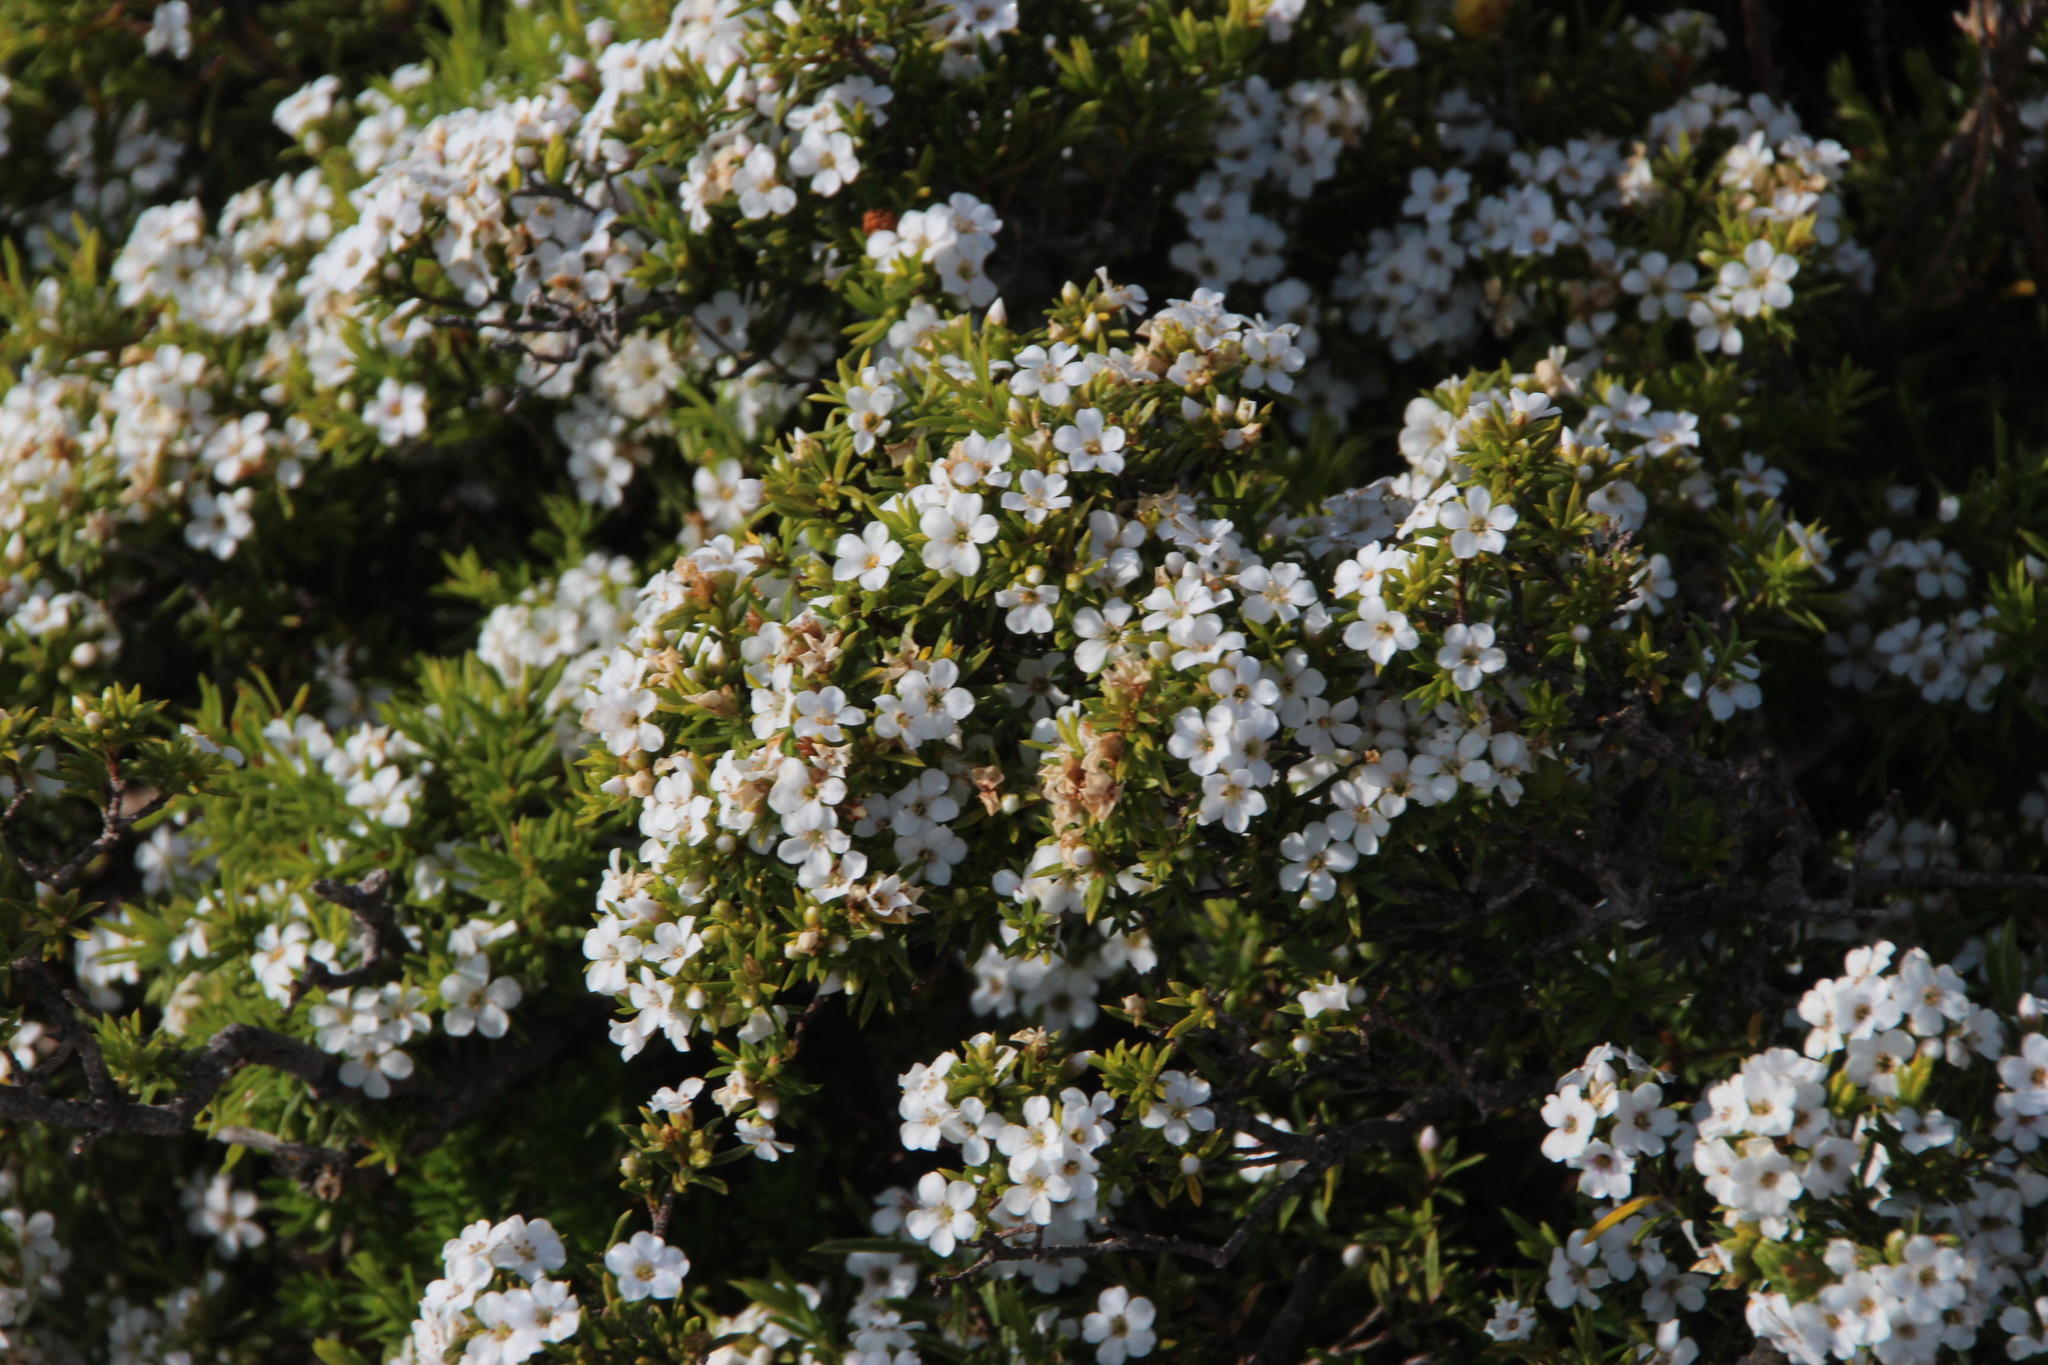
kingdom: Plantae
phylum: Tracheophyta
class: Magnoliopsida
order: Sapindales
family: Rutaceae
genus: Coleonema
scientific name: Coleonema album
